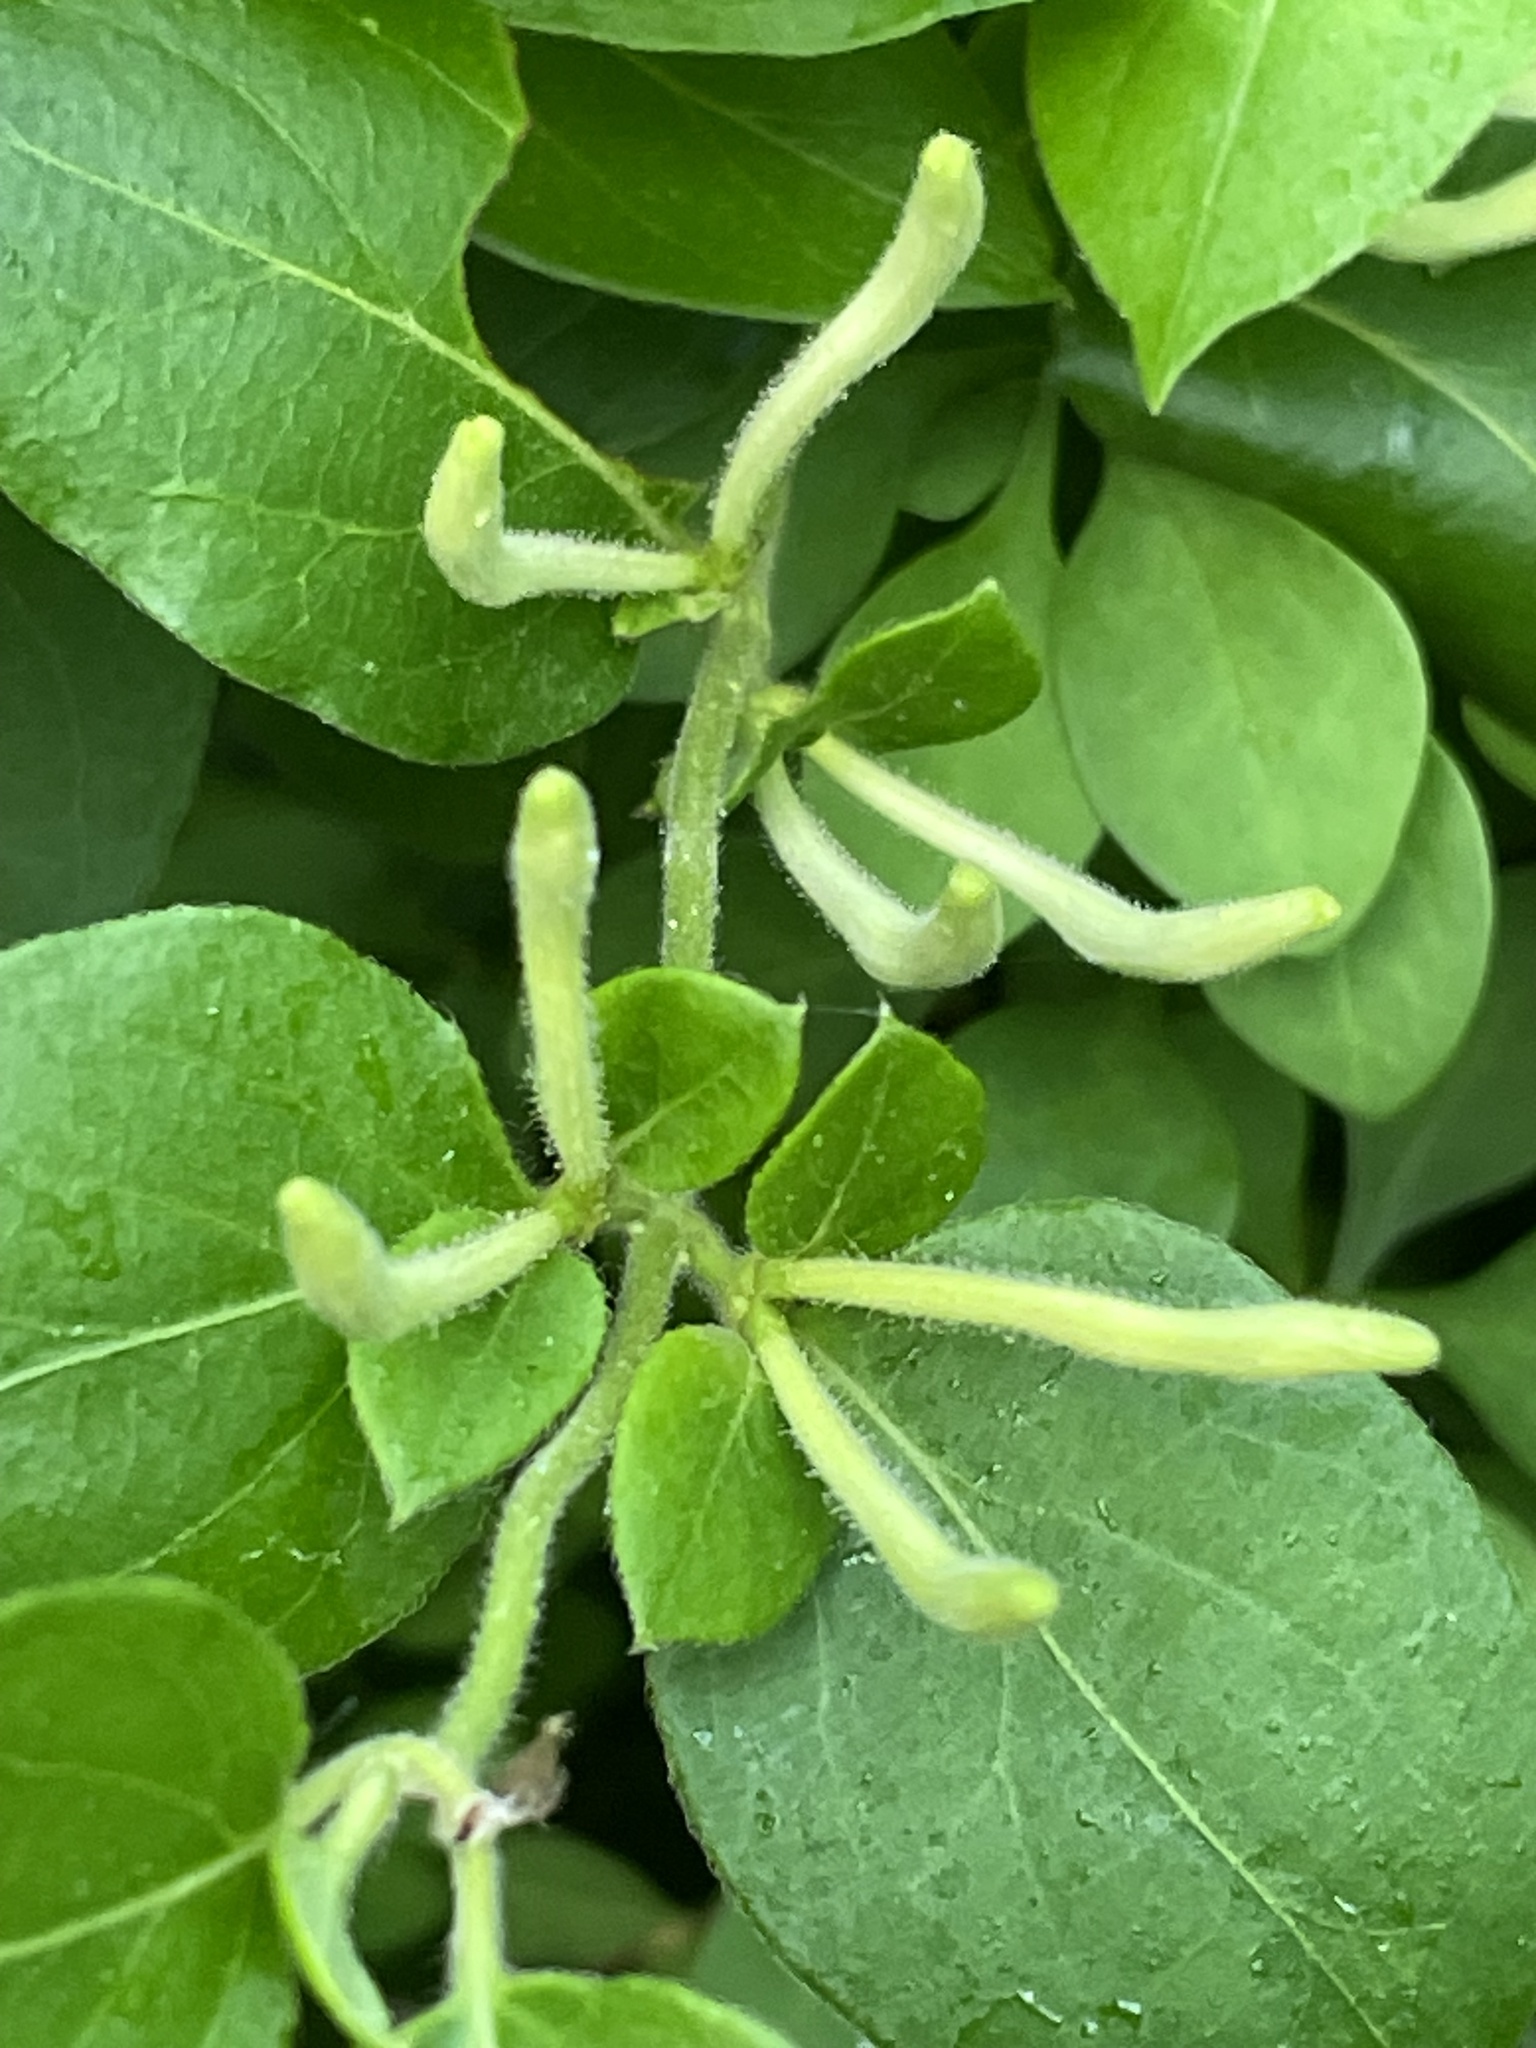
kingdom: Plantae
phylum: Tracheophyta
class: Magnoliopsida
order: Dipsacales
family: Caprifoliaceae
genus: Lonicera
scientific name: Lonicera japonica
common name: Japanese honeysuckle
